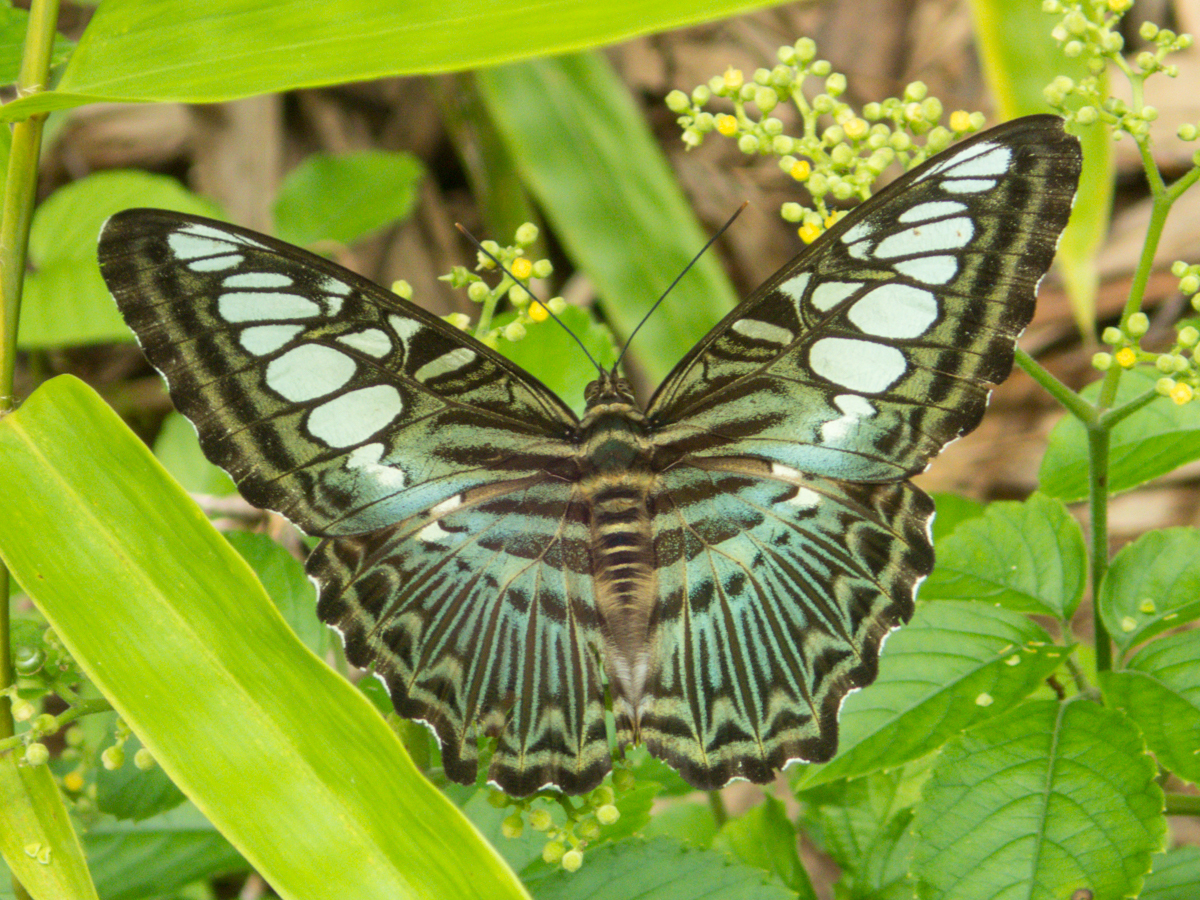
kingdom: Animalia
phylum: Arthropoda
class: Insecta
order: Lepidoptera
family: Nymphalidae
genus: Kallima
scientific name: Kallima sylvia
